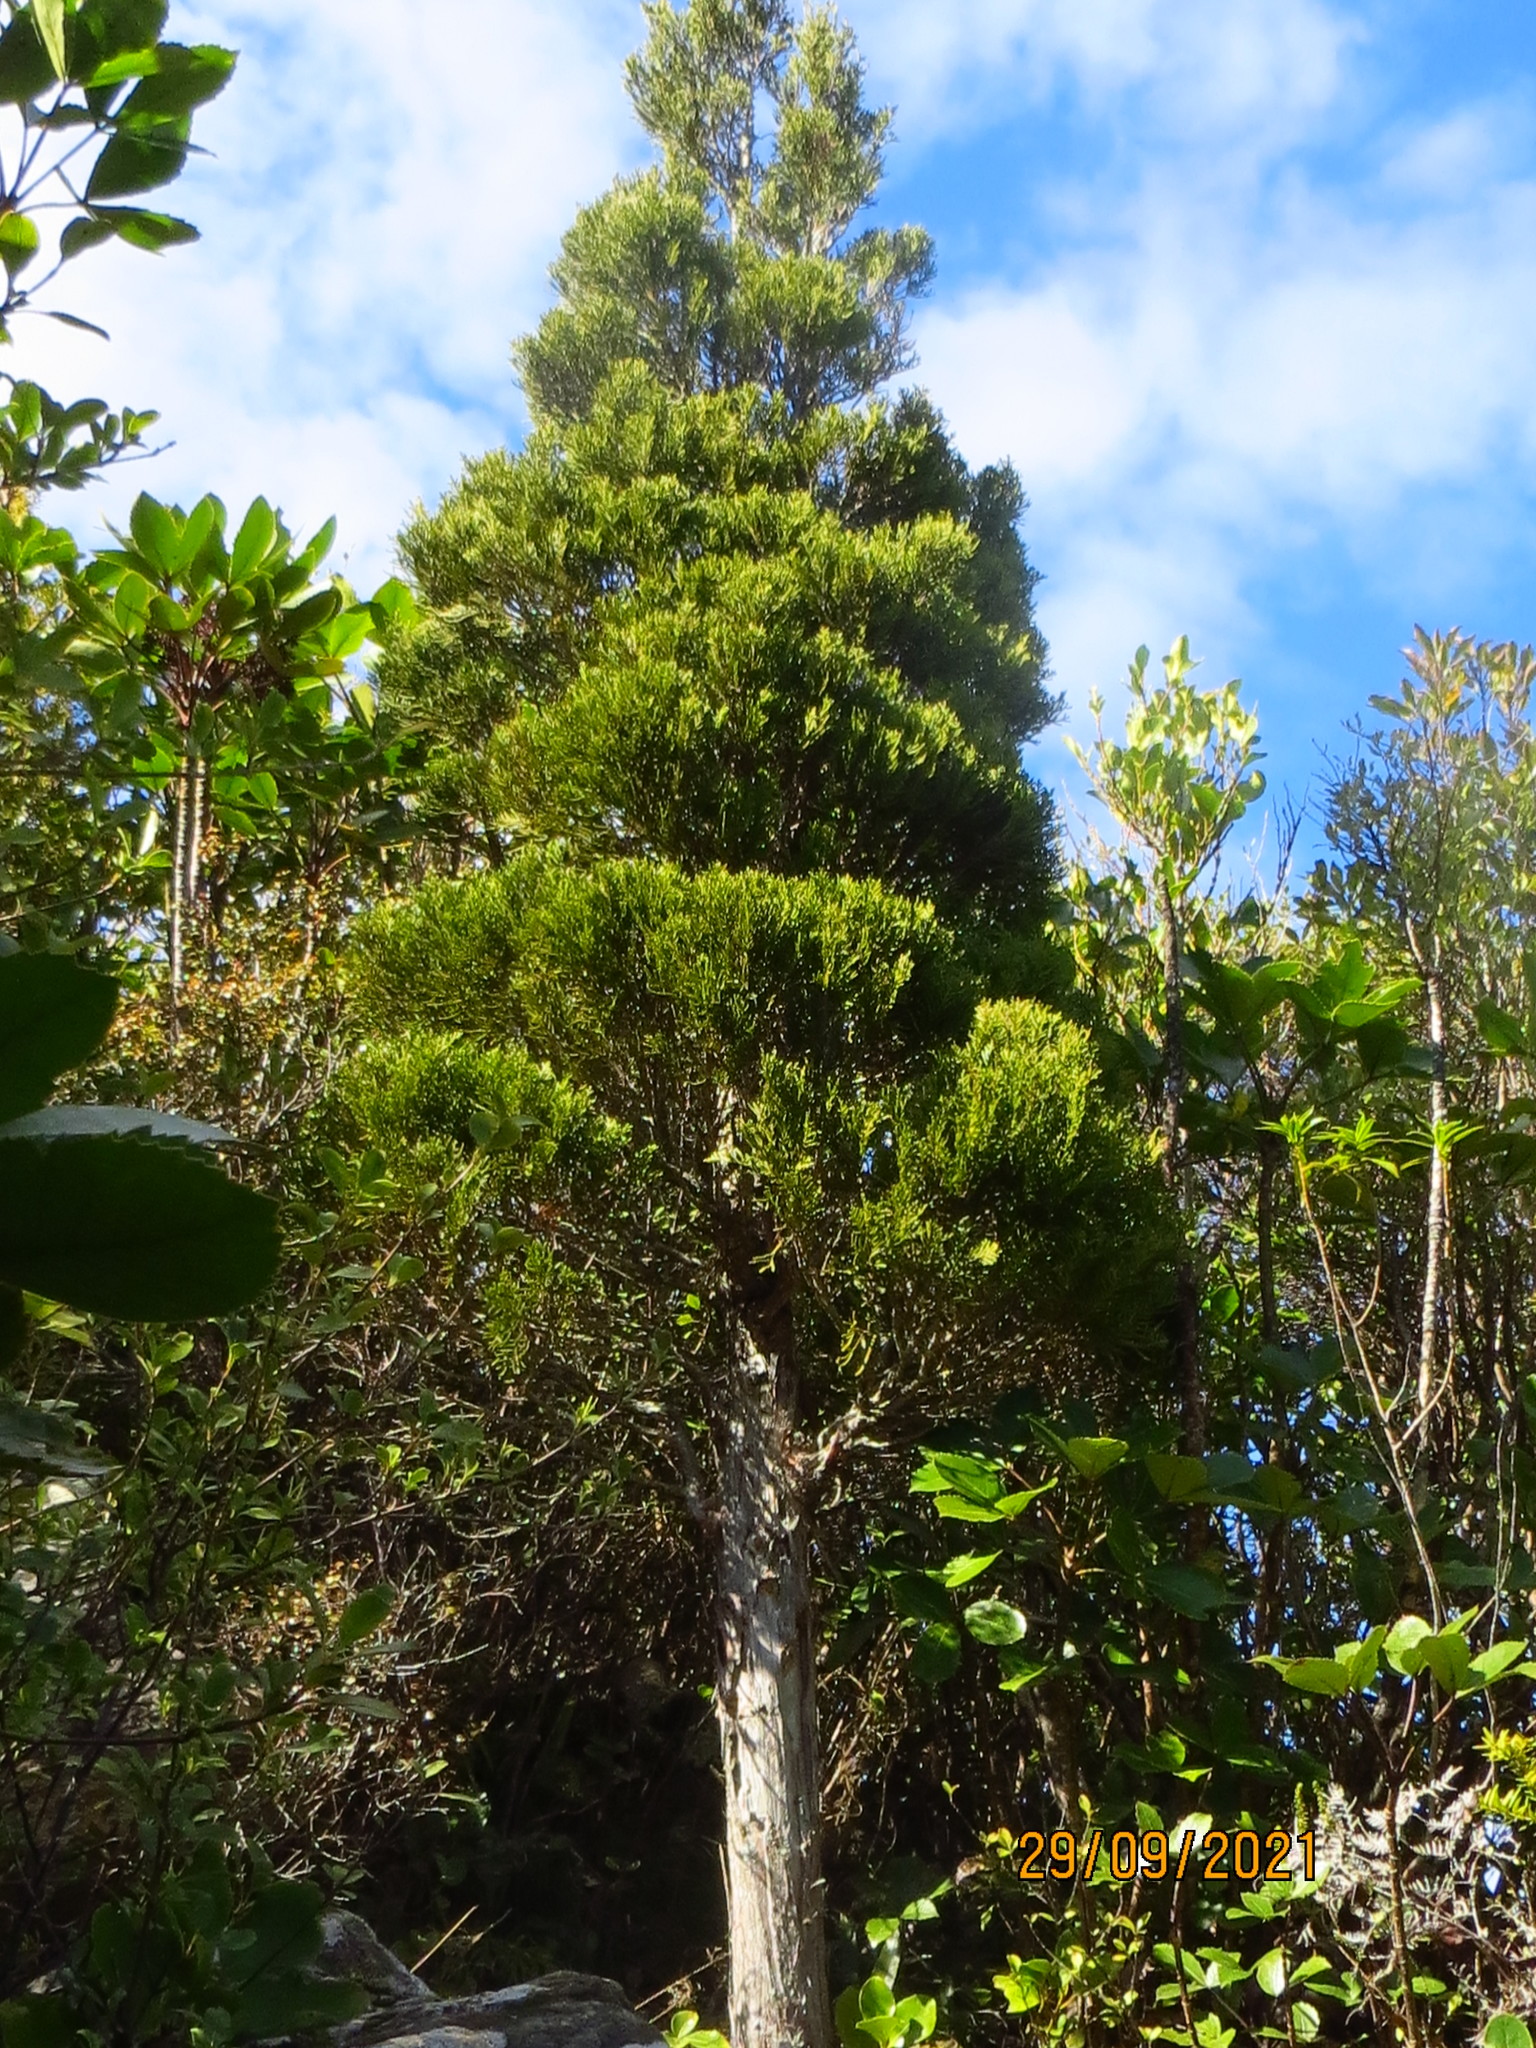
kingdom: Plantae
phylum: Tracheophyta
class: Pinopsida
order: Pinales
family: Cupressaceae
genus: Libocedrus
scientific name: Libocedrus bidwillii
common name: Cedar
